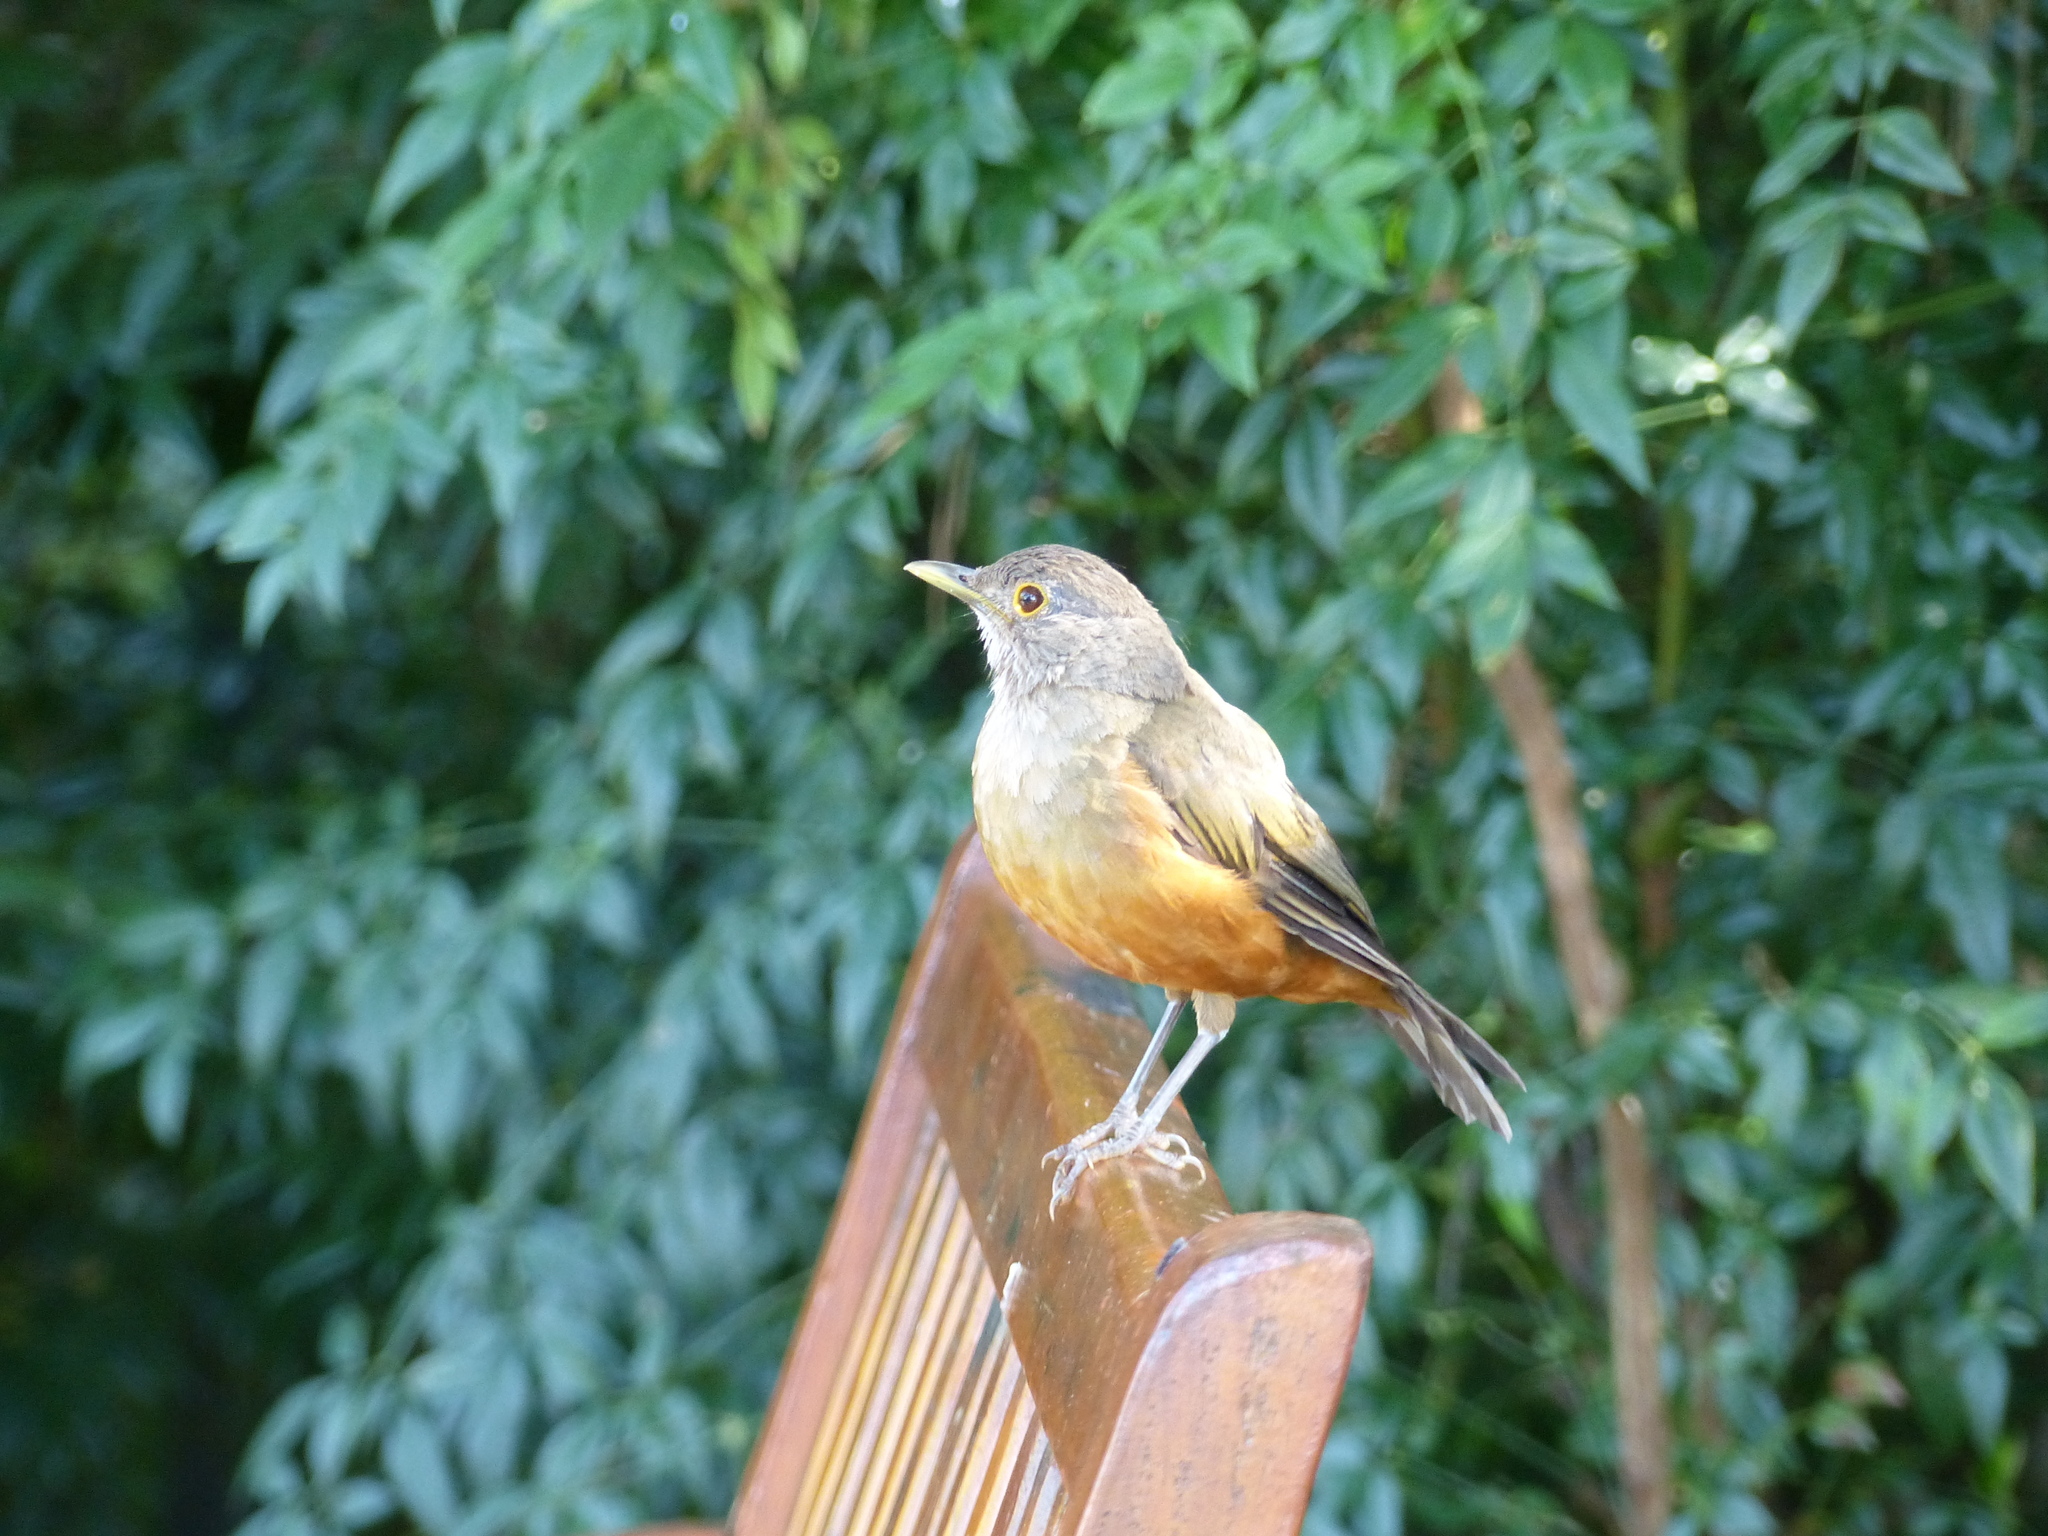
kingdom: Animalia
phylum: Chordata
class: Aves
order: Passeriformes
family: Turdidae
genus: Turdus
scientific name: Turdus rufiventris
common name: Rufous-bellied thrush
